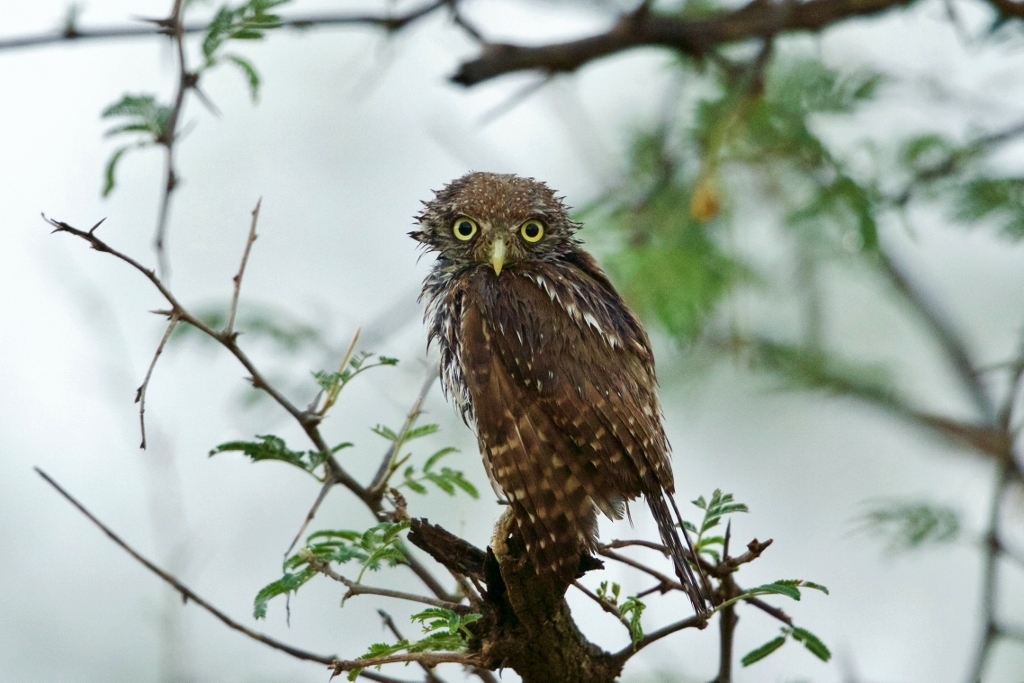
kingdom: Animalia
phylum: Chordata
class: Aves
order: Strigiformes
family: Strigidae
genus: Glaucidium
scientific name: Glaucidium perlatum
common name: Pearl-spotted owlet
